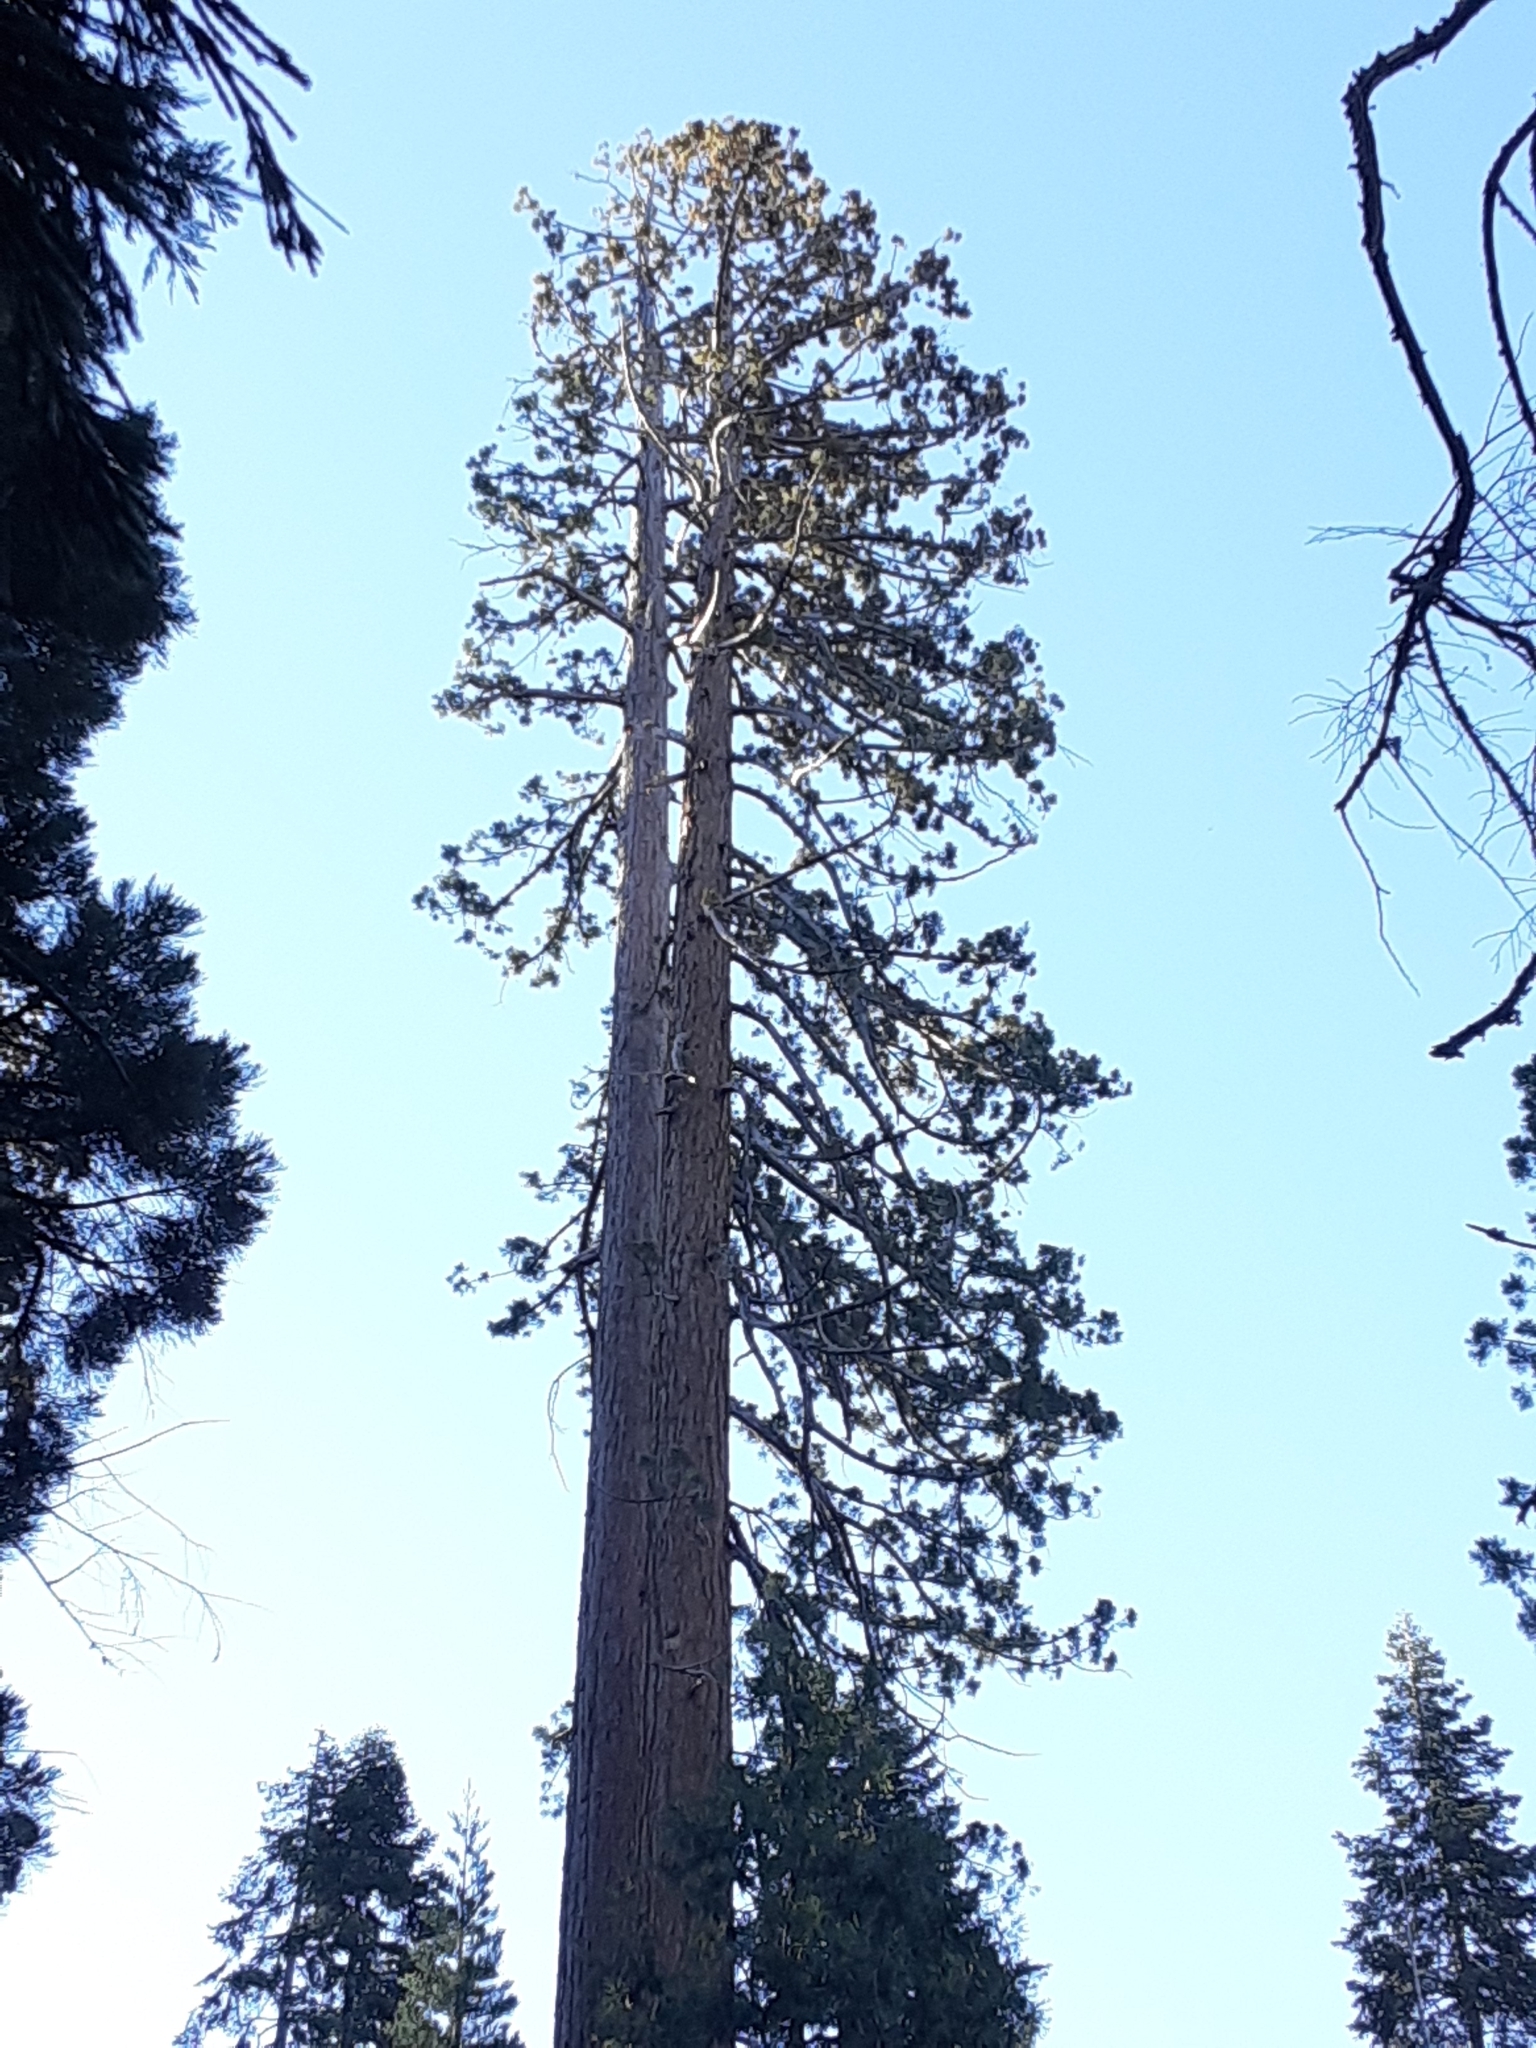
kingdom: Plantae
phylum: Tracheophyta
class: Pinopsida
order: Pinales
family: Cupressaceae
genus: Sequoiadendron
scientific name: Sequoiadendron giganteum
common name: Wellingtonia
